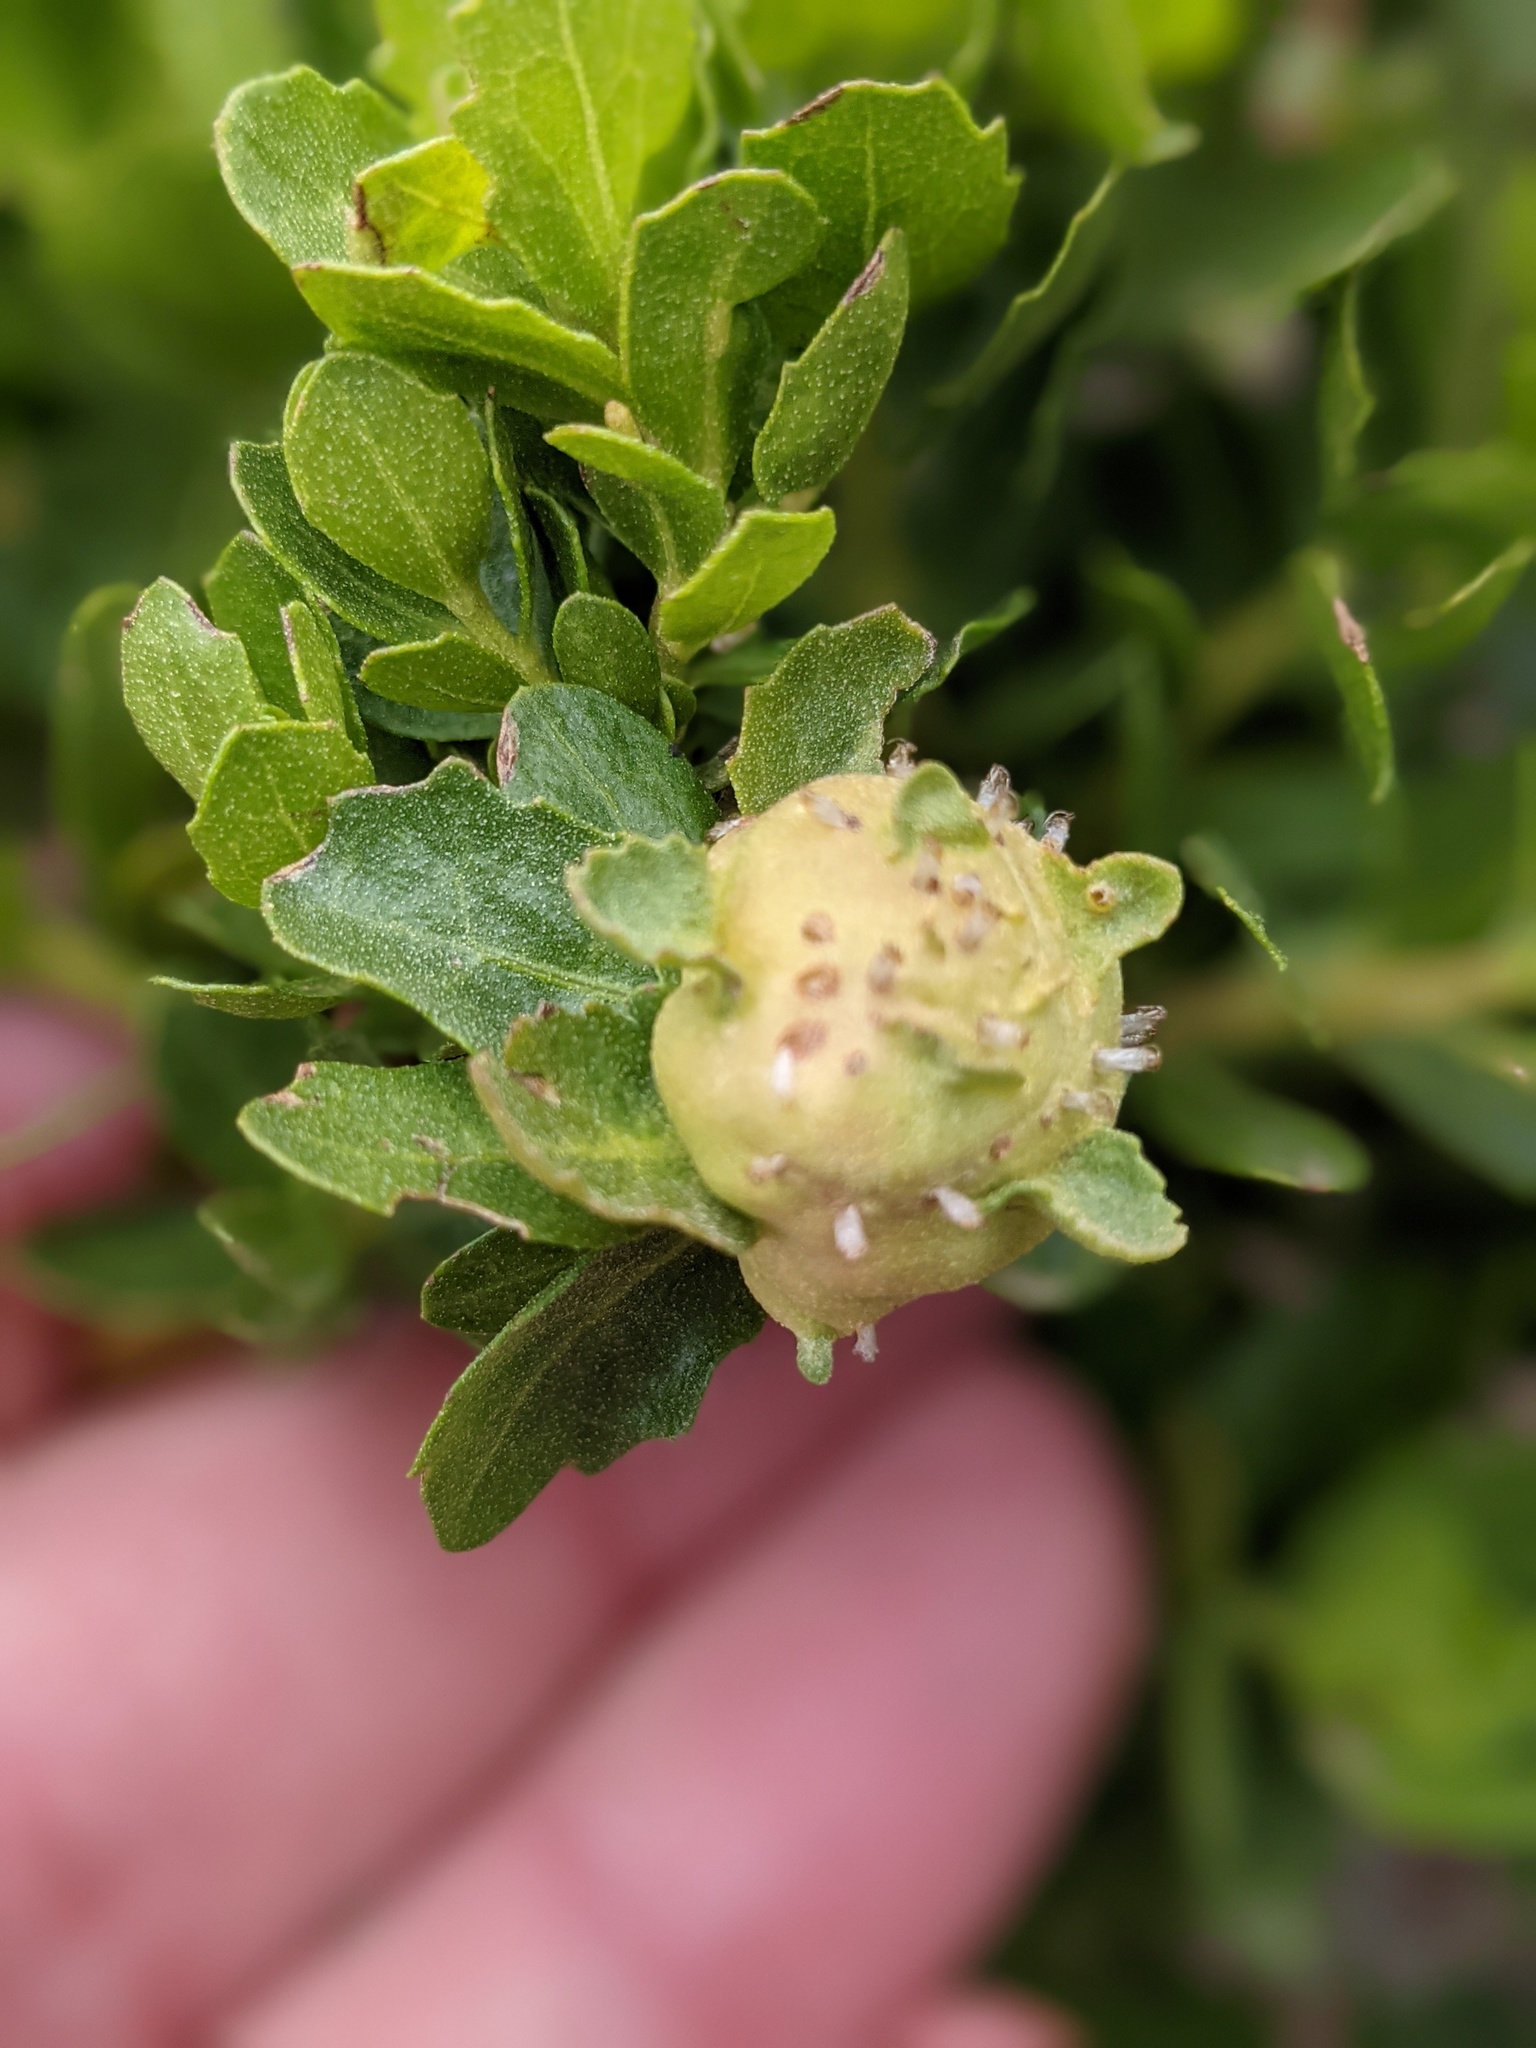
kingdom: Animalia
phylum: Arthropoda
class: Insecta
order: Diptera
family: Cecidomyiidae
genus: Rhopalomyia
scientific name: Rhopalomyia californica
